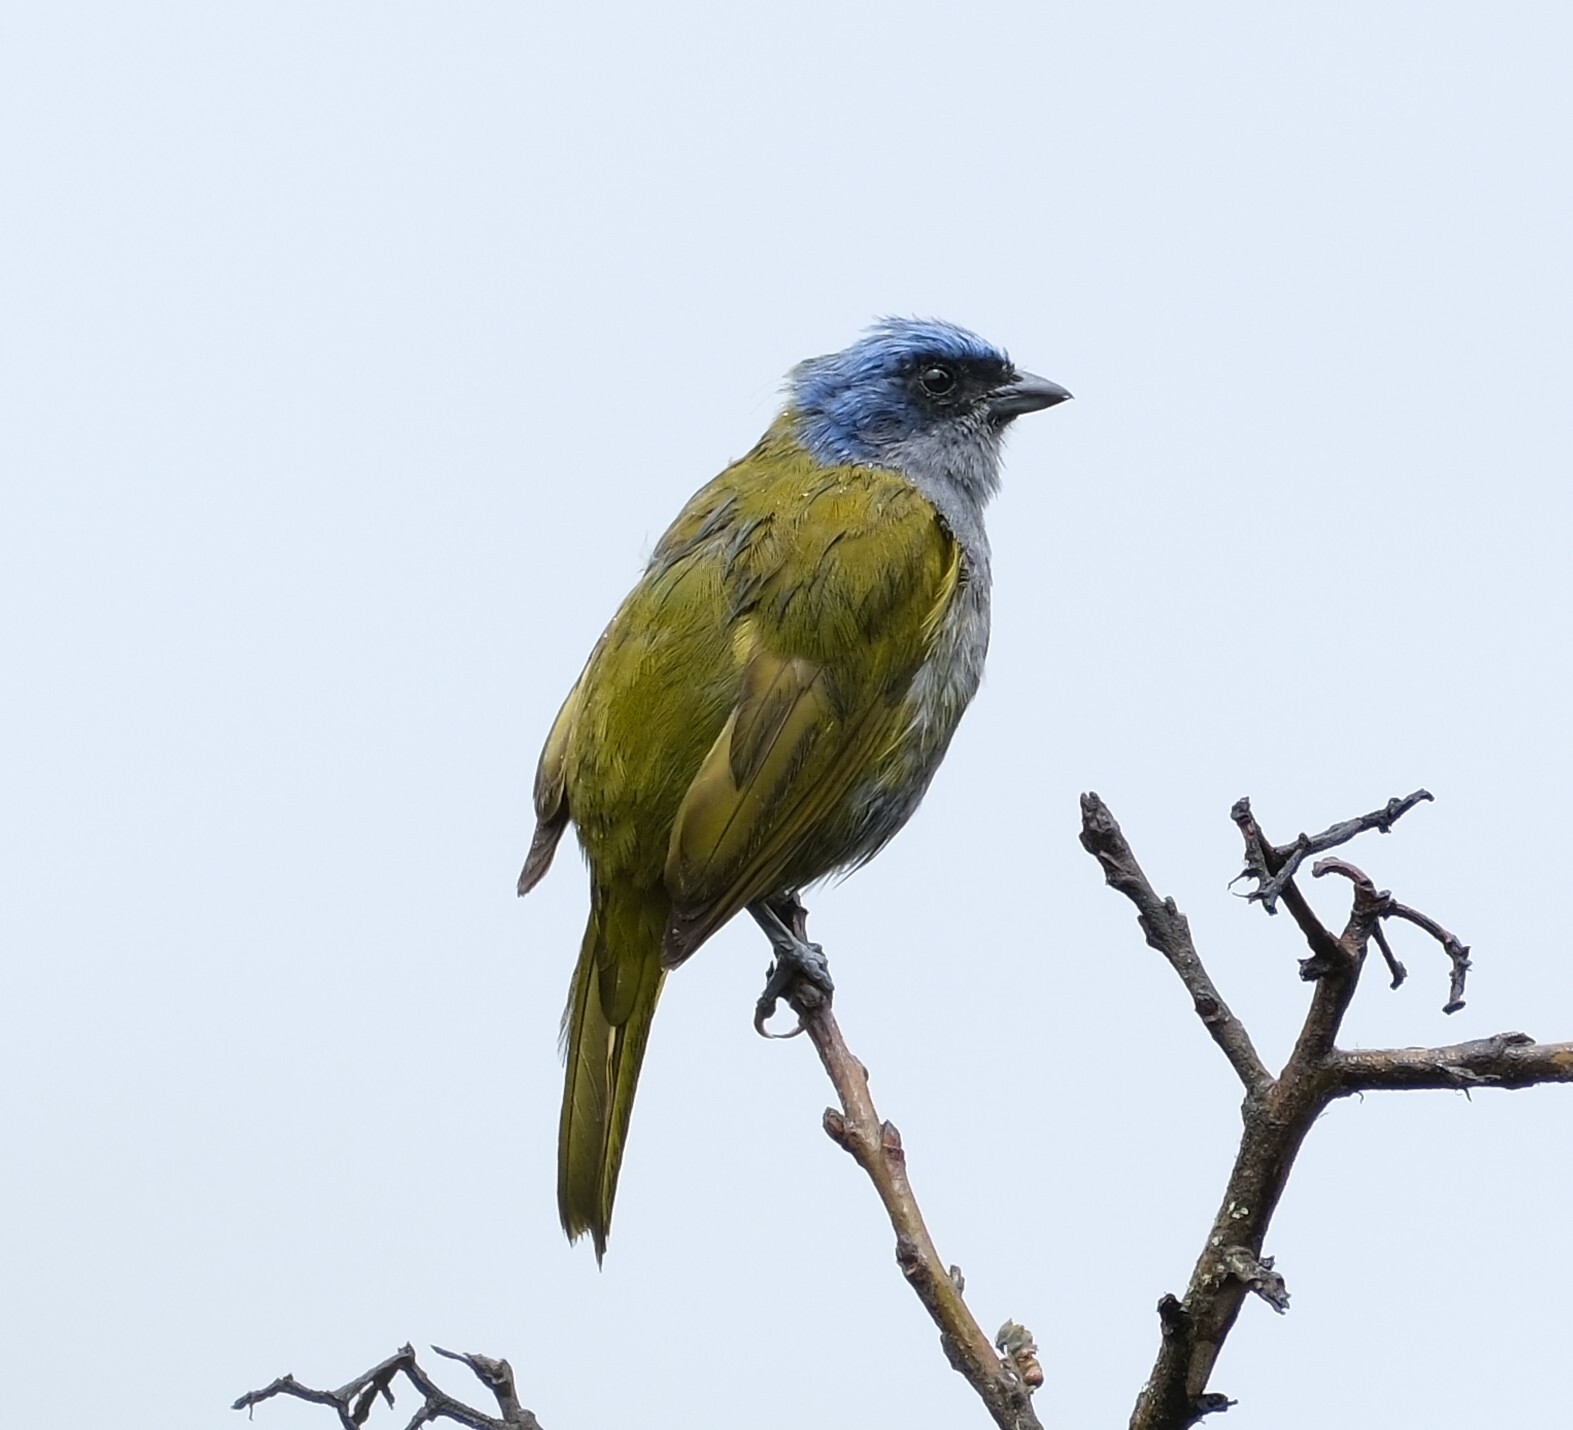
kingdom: Animalia
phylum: Chordata
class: Aves
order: Passeriformes
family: Thraupidae
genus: Sporathraupis
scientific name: Sporathraupis cyanocephala
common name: Blue-capped tanager
